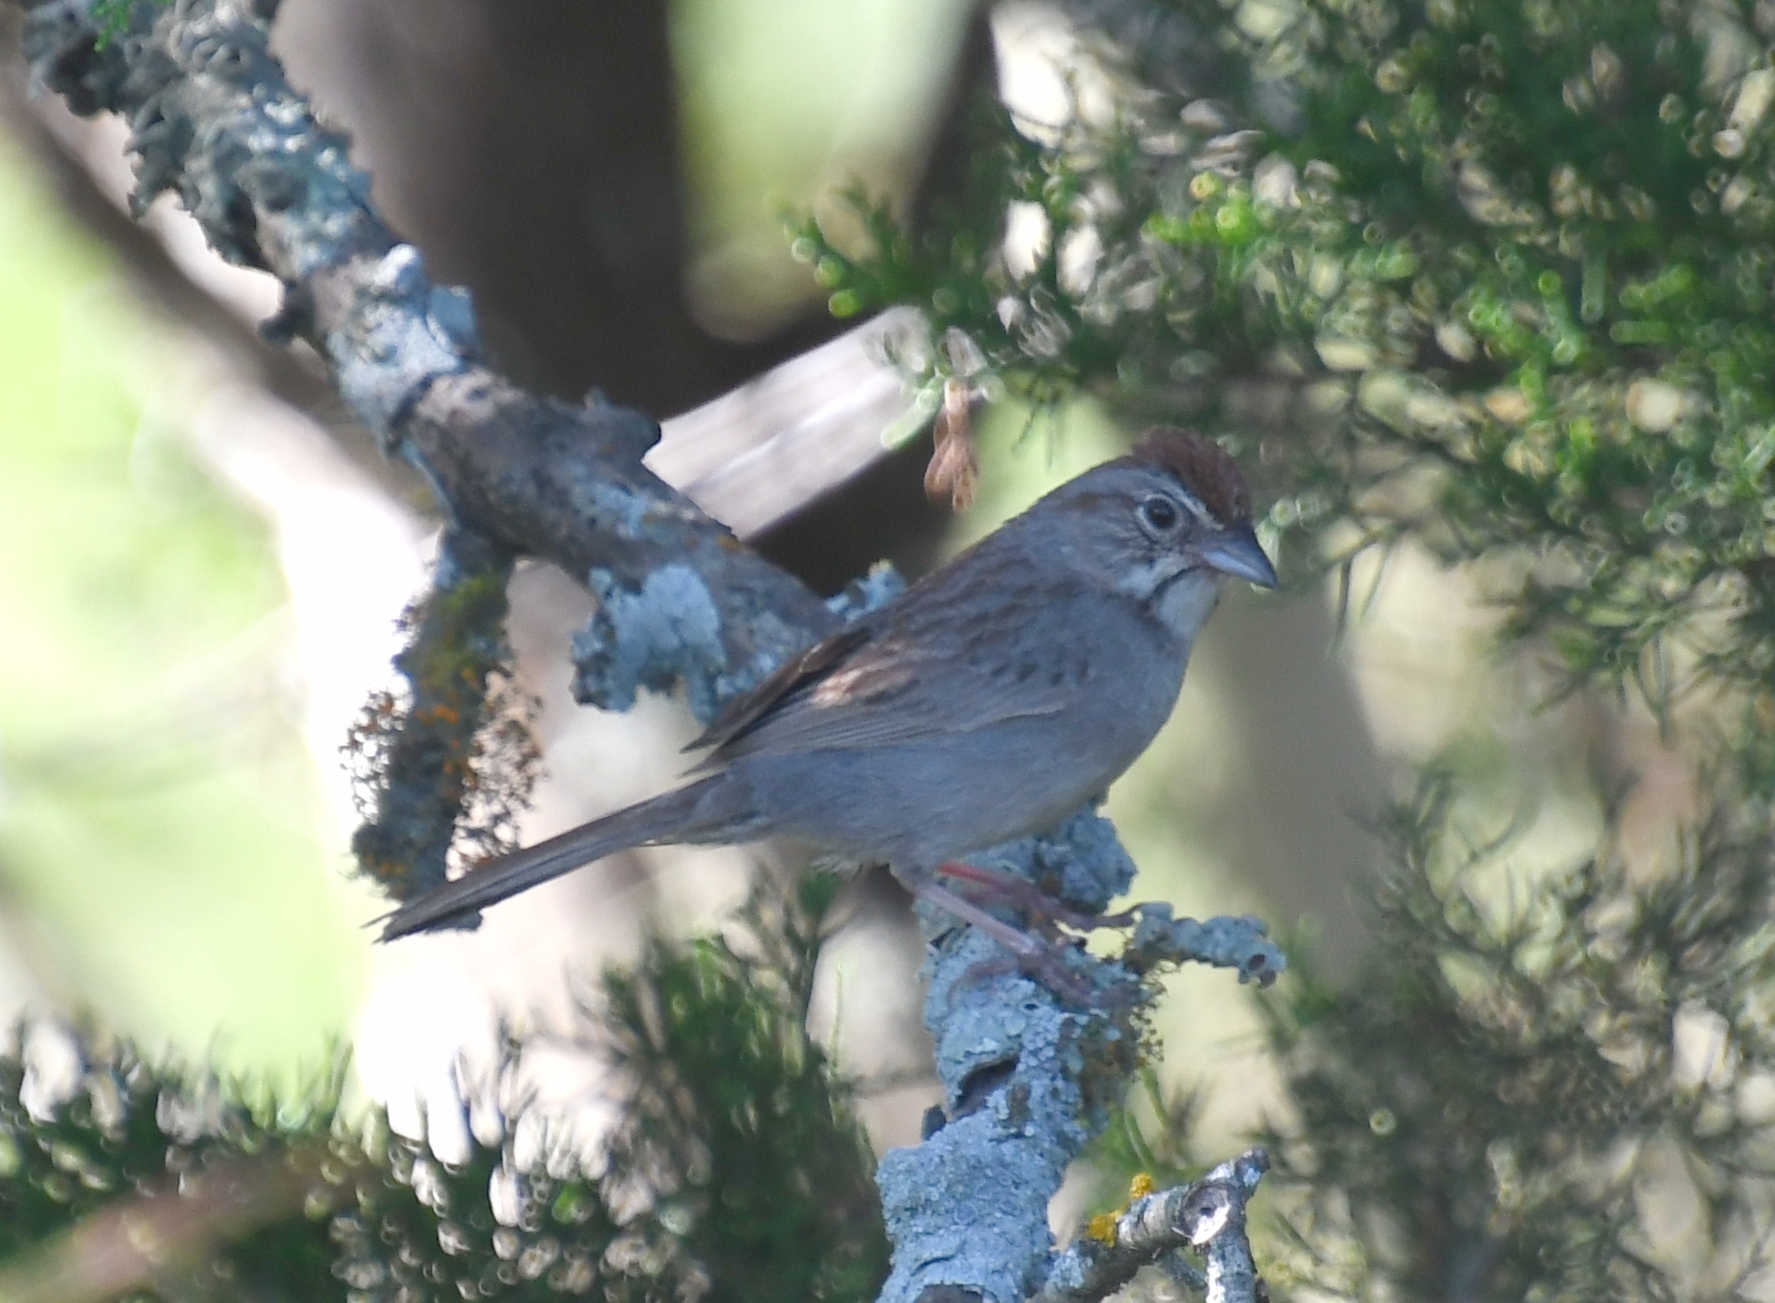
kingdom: Animalia
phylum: Chordata
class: Aves
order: Passeriformes
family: Passerellidae
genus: Aimophila
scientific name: Aimophila ruficeps
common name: Rufous-crowned sparrow
